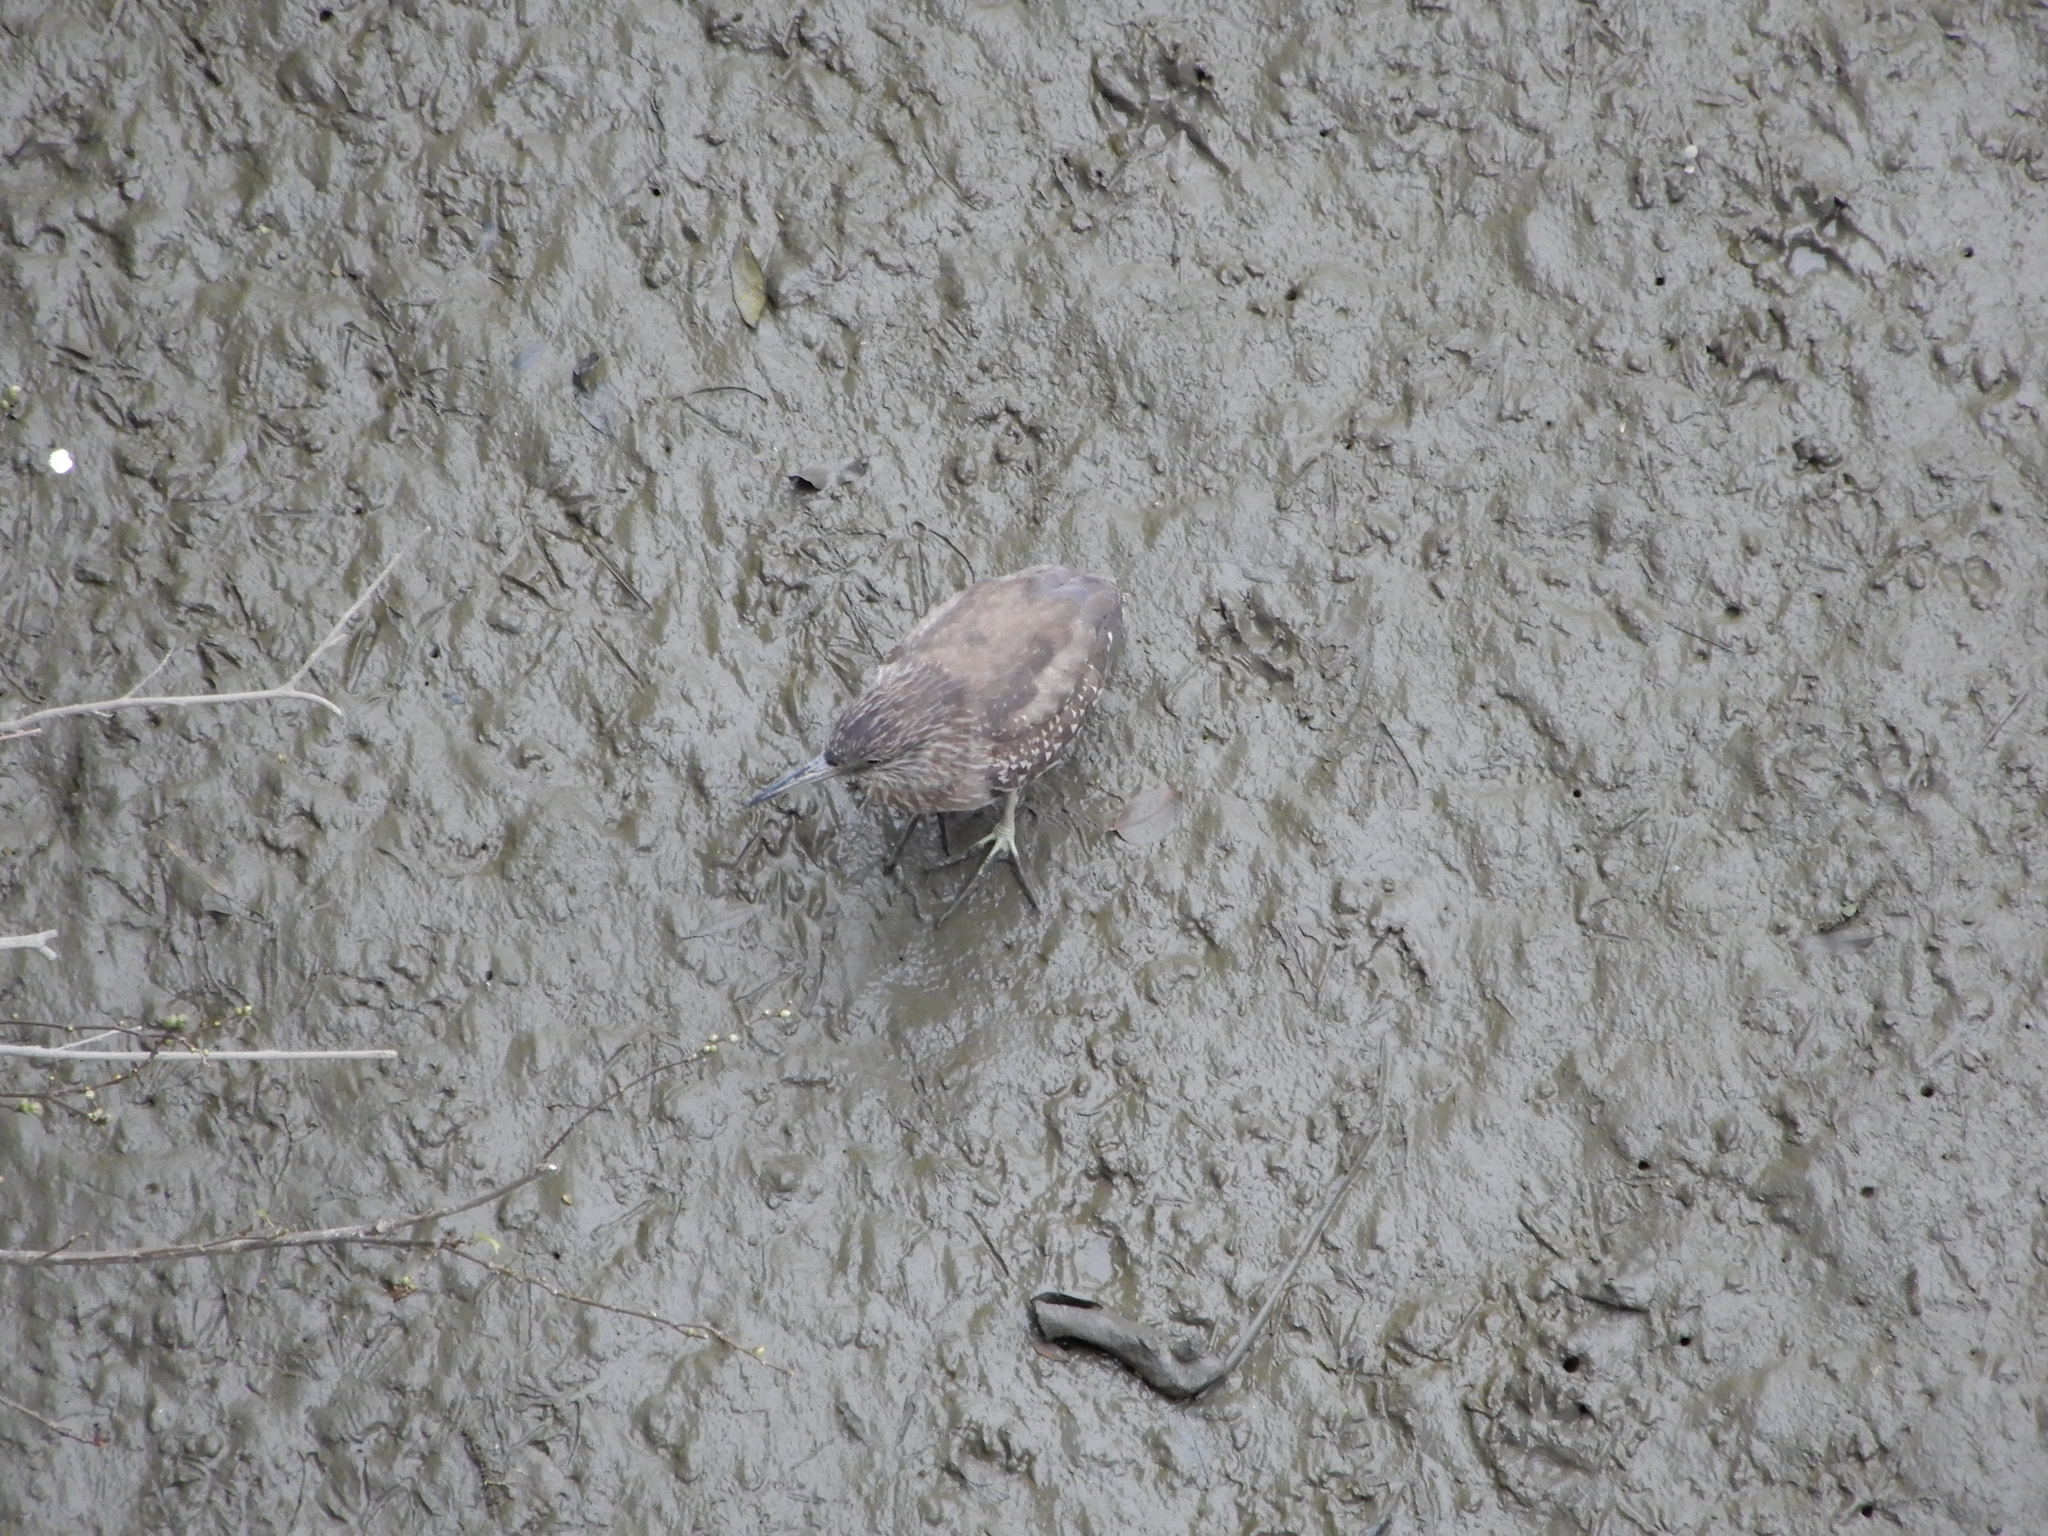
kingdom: Animalia
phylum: Chordata
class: Aves
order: Pelecaniformes
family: Ardeidae
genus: Nycticorax
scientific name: Nycticorax nycticorax
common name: Black-crowned night heron
